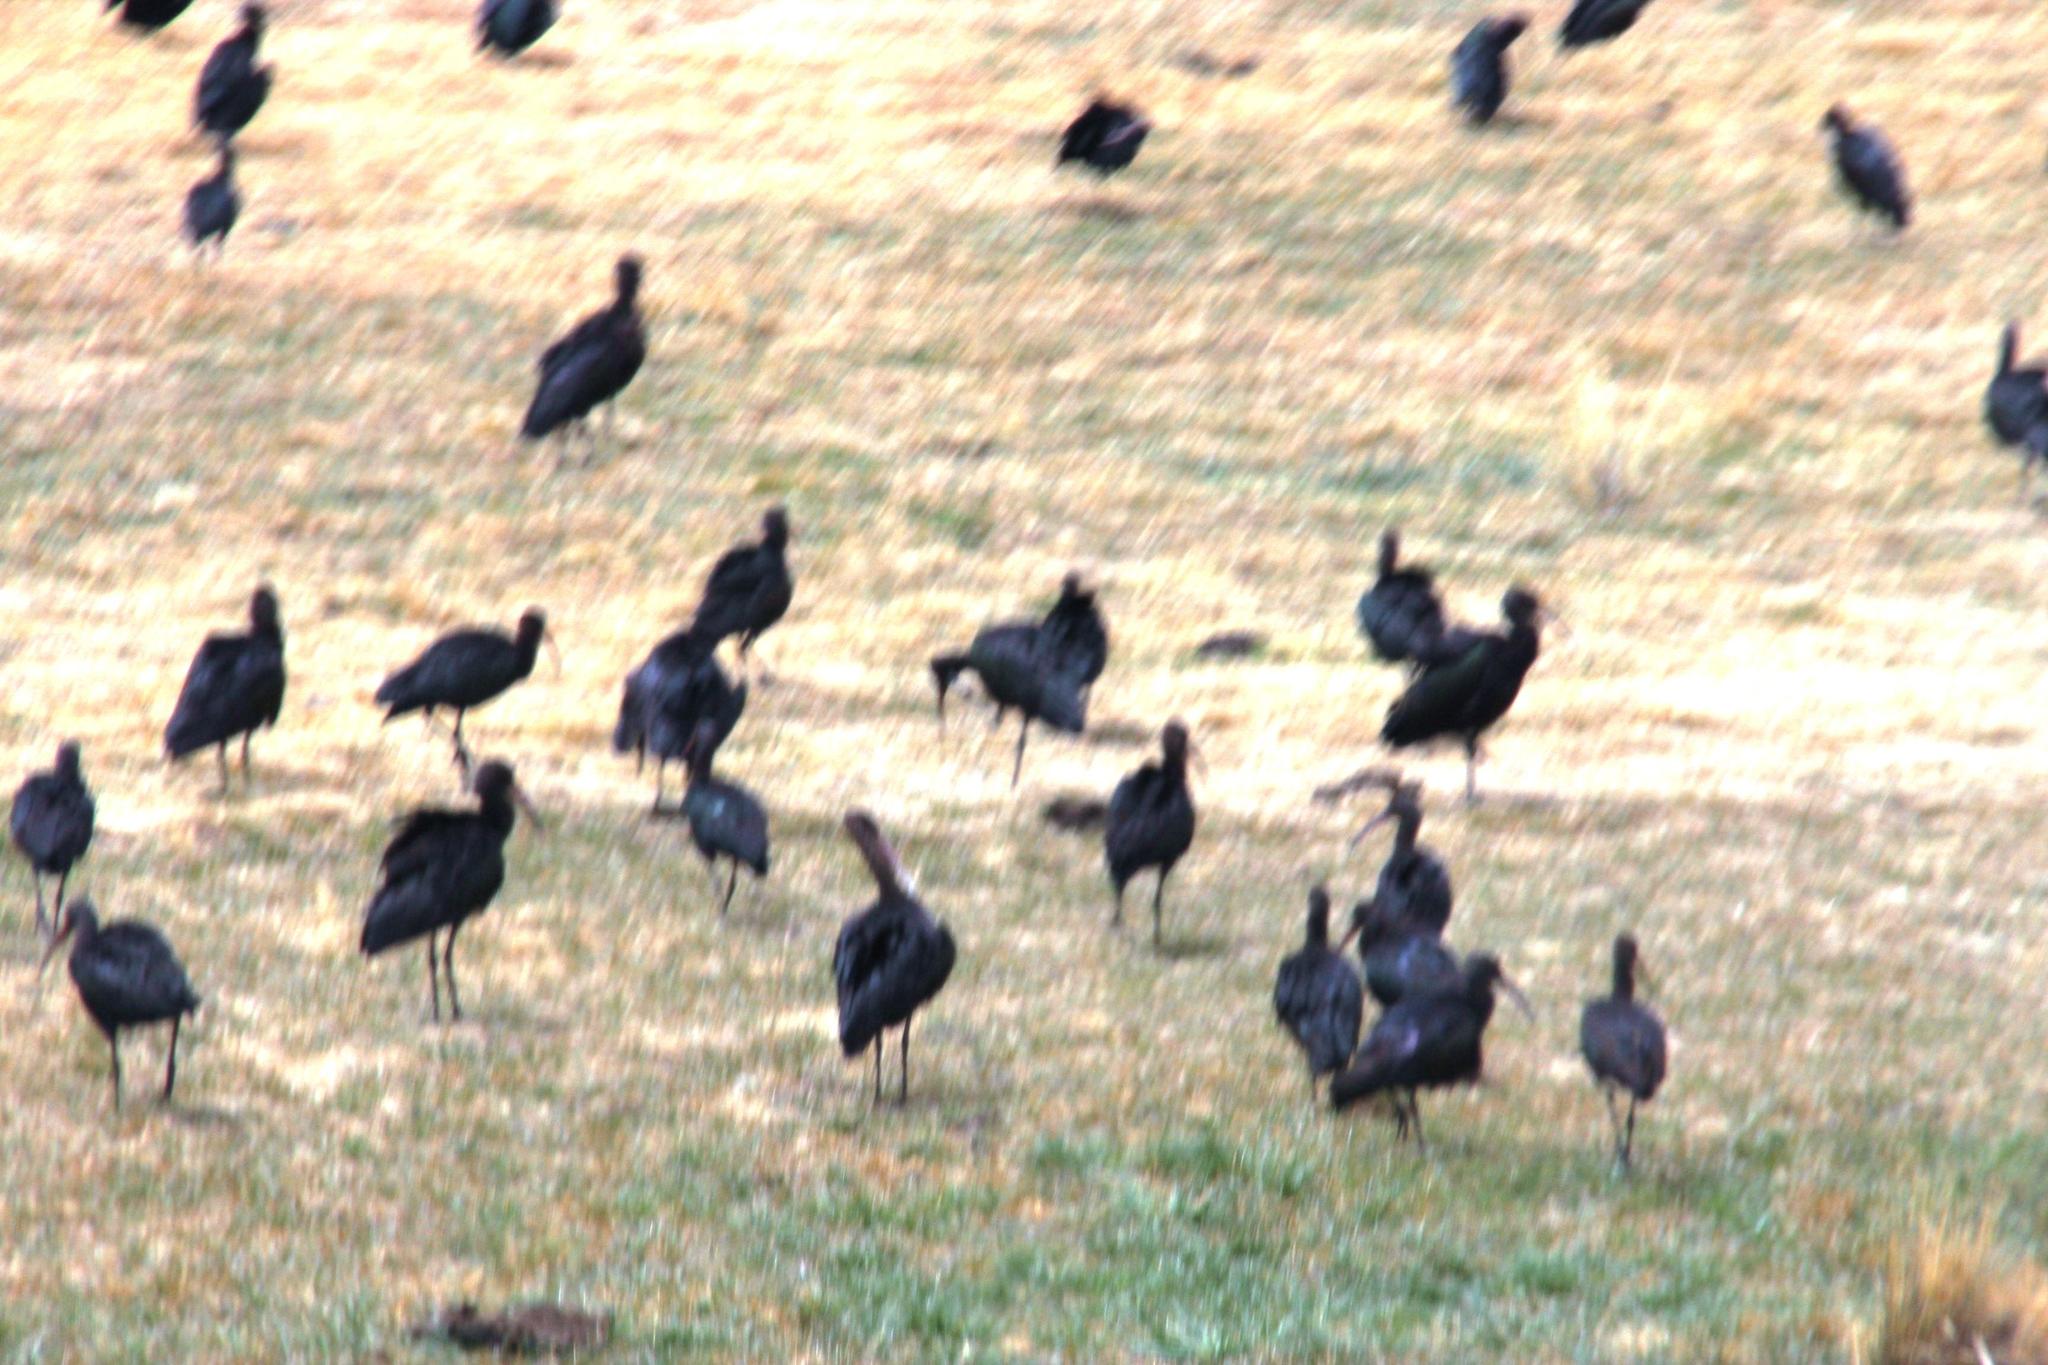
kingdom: Animalia
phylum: Chordata
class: Aves
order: Pelecaniformes
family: Threskiornithidae
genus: Plegadis
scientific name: Plegadis ridgwayi
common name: Puna ibis
